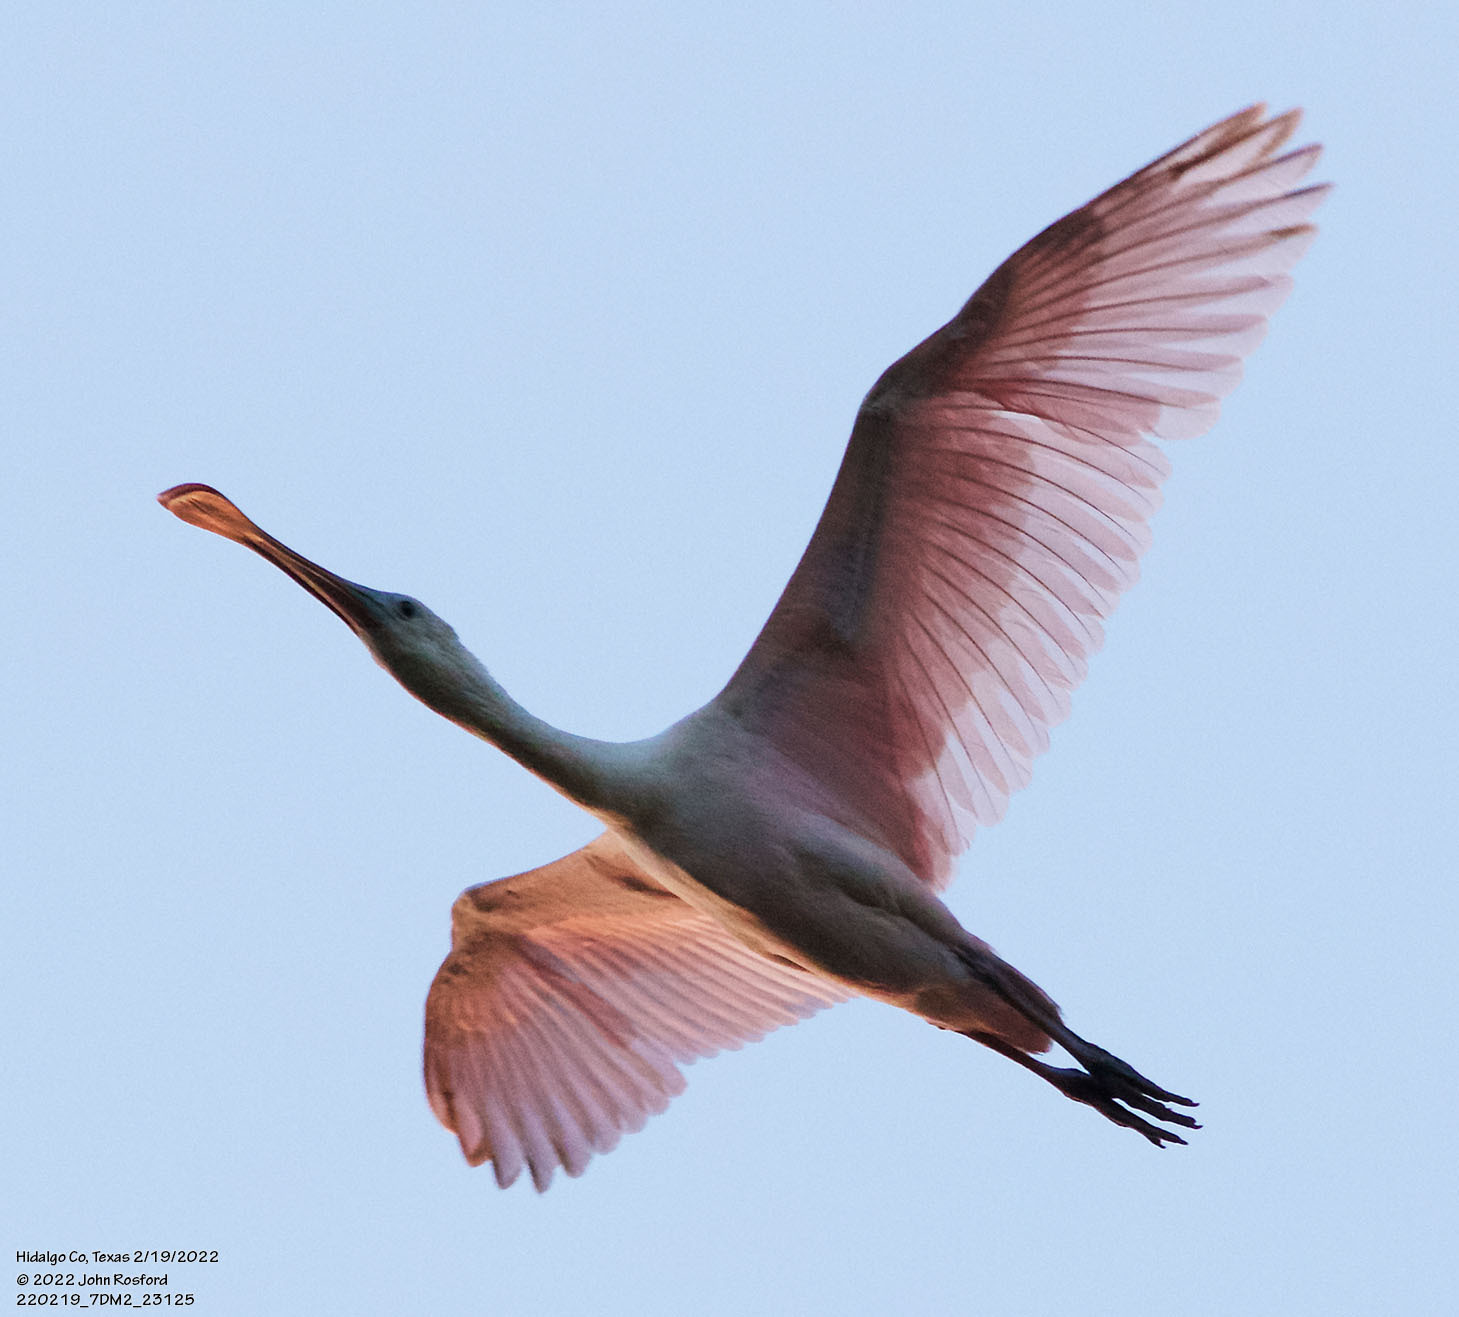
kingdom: Animalia
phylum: Chordata
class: Aves
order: Pelecaniformes
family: Threskiornithidae
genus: Platalea
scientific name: Platalea ajaja
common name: Roseate spoonbill
